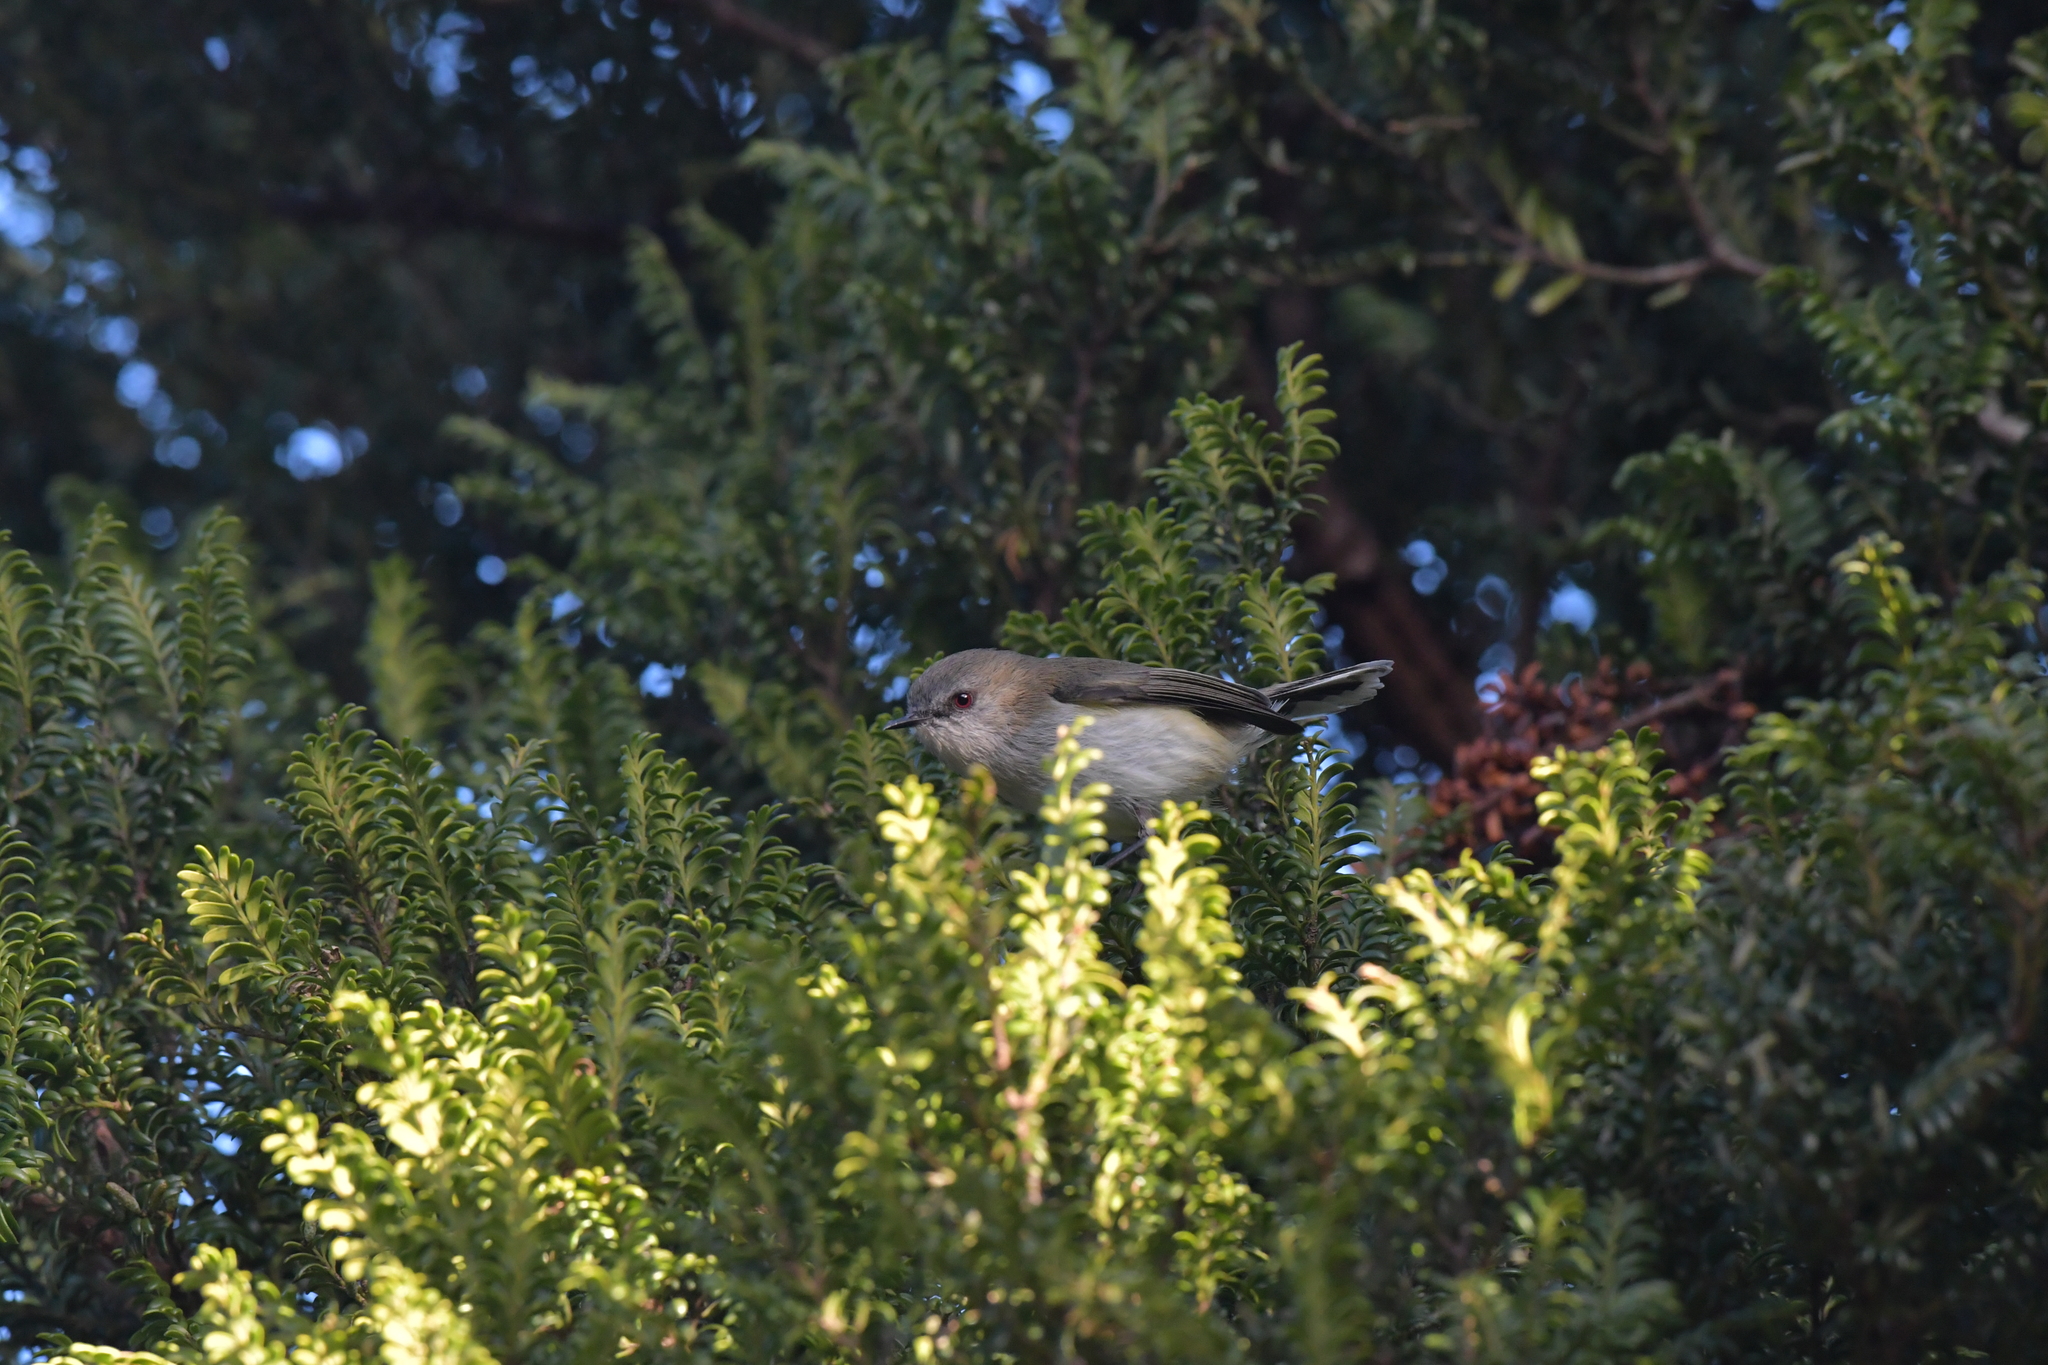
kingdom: Animalia
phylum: Chordata
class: Aves
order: Passeriformes
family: Acanthizidae
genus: Gerygone
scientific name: Gerygone igata
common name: Grey gerygone
